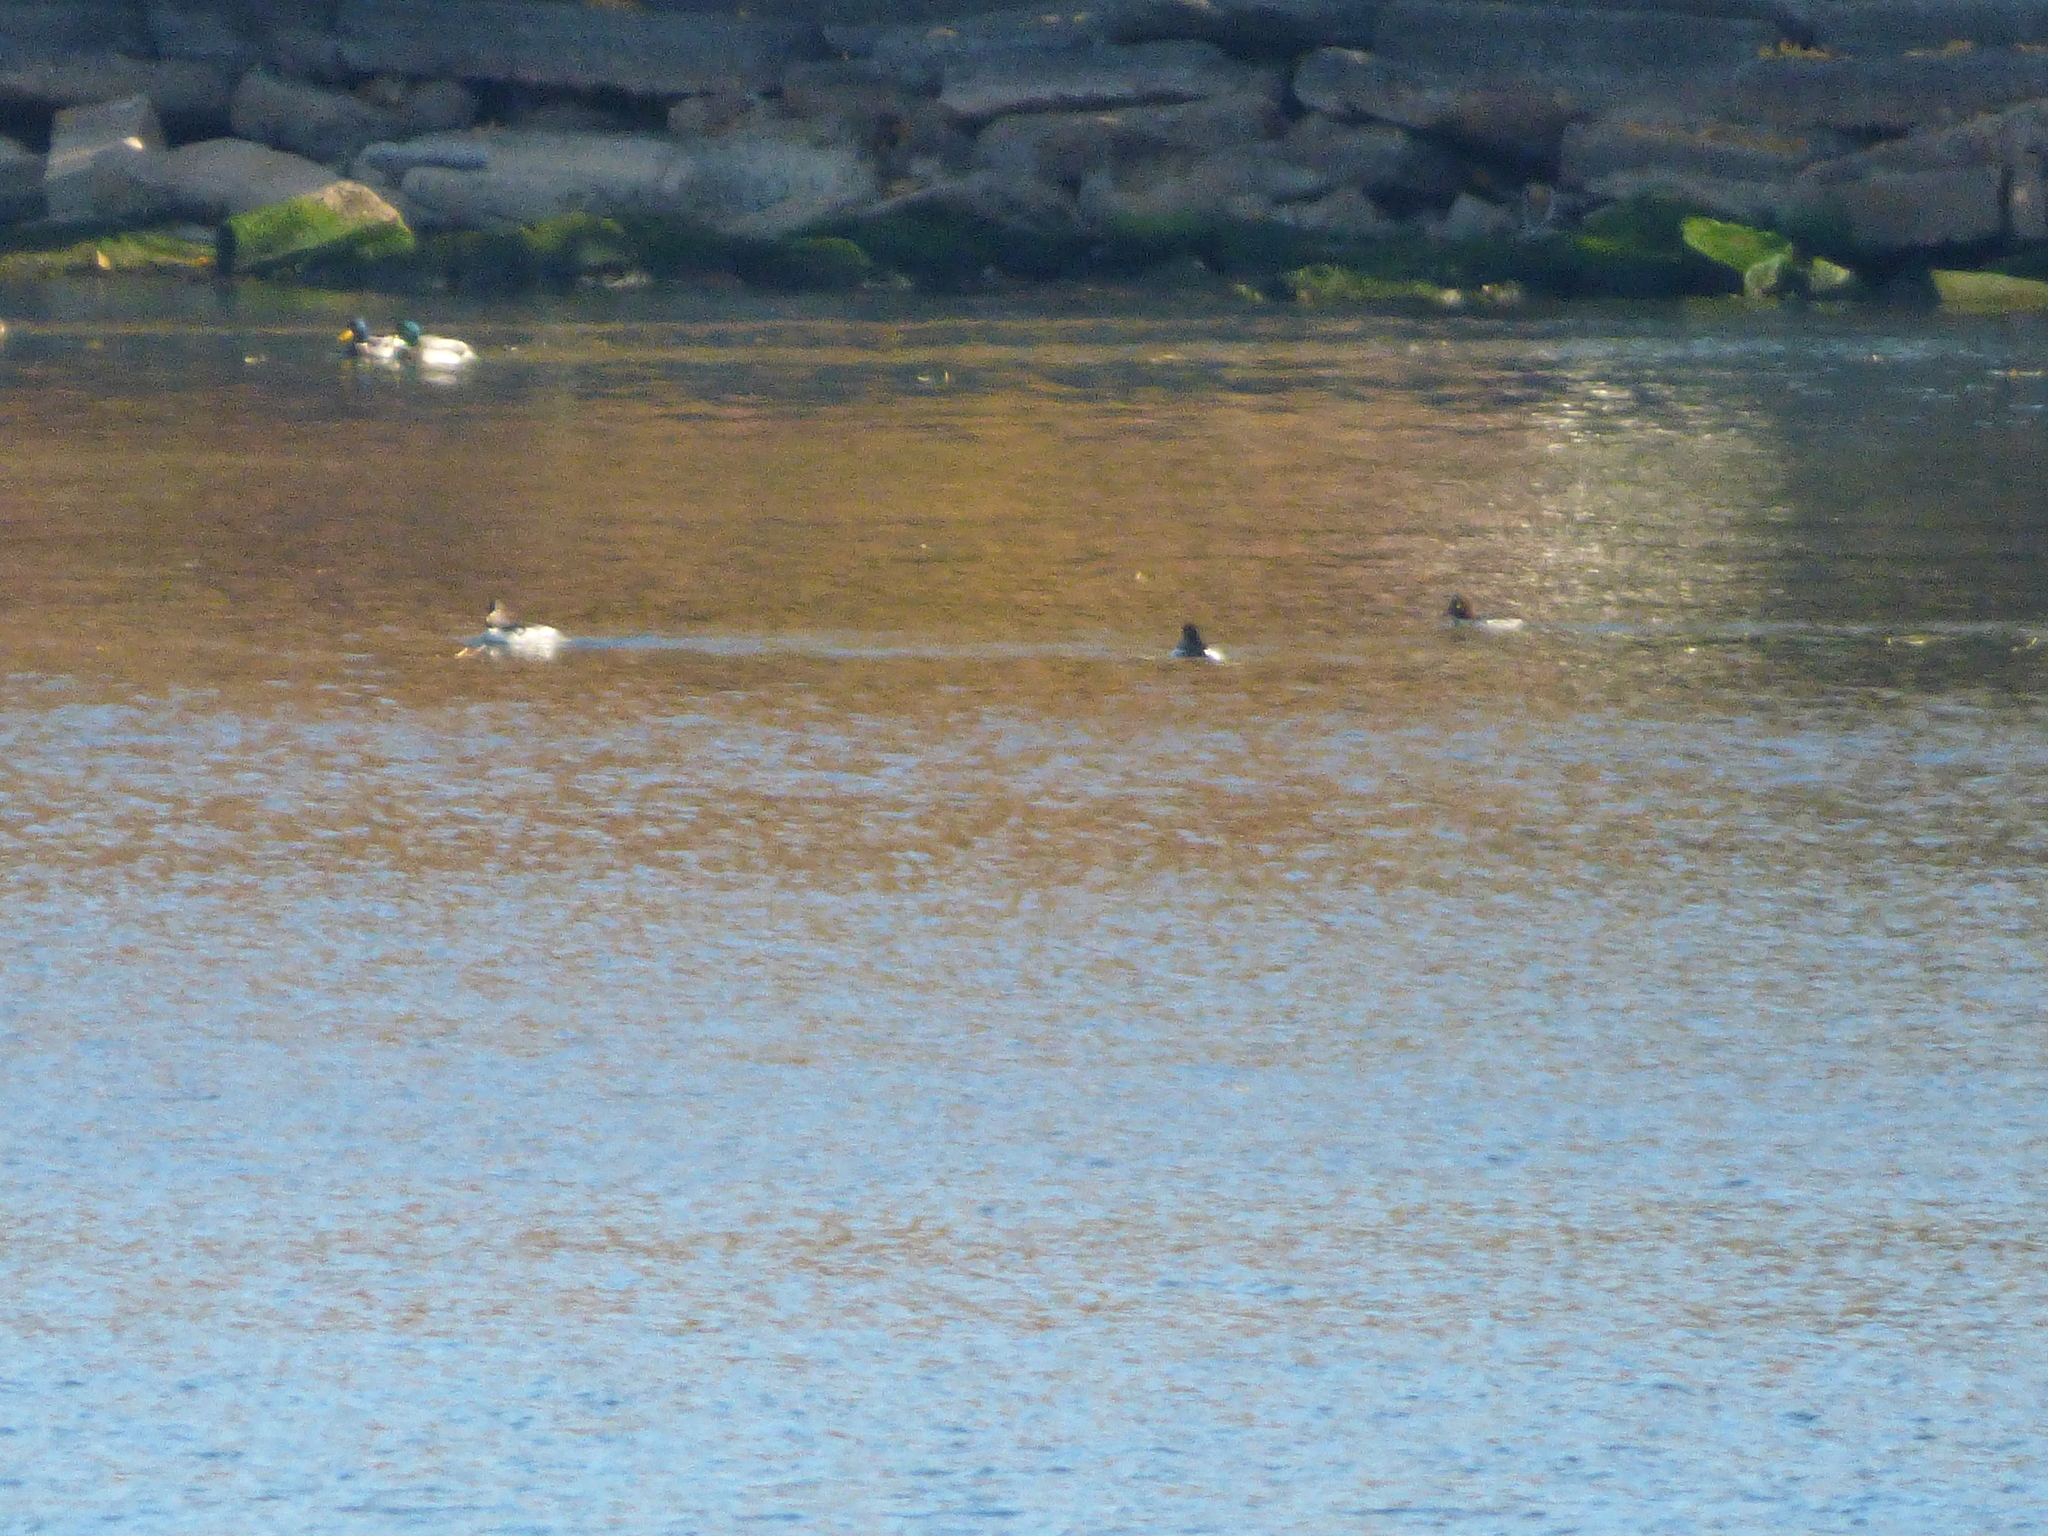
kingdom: Animalia
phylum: Chordata
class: Aves
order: Anseriformes
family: Anatidae
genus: Anas
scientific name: Anas platyrhynchos
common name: Mallard
